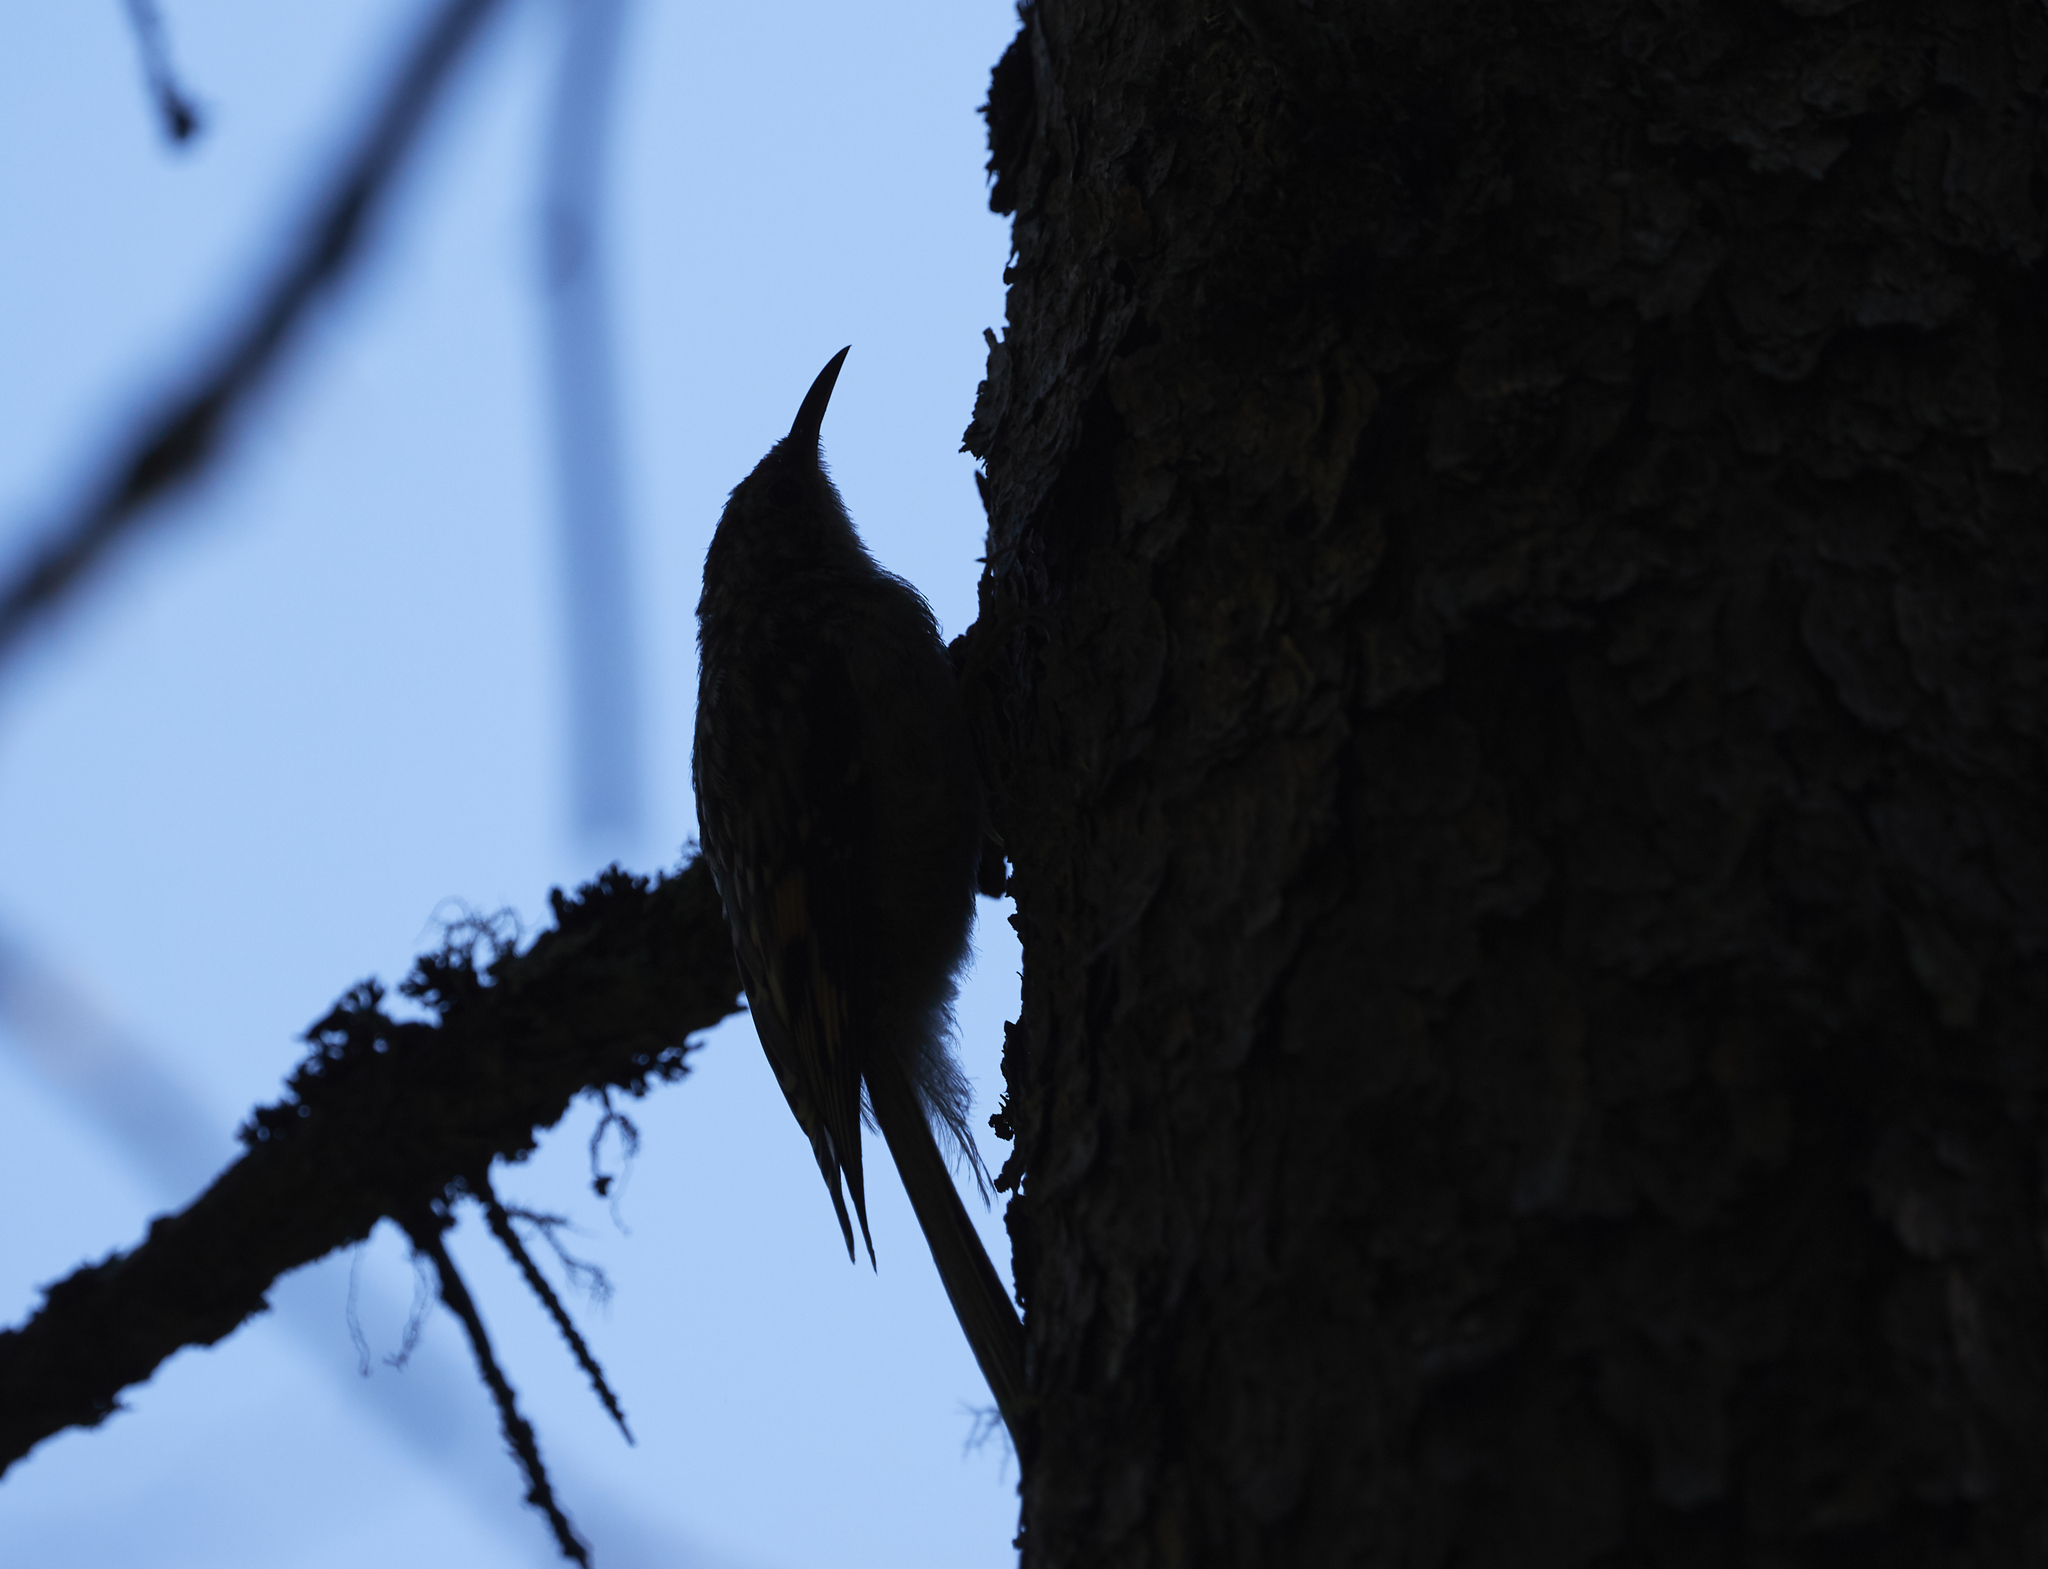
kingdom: Animalia
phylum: Chordata
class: Aves
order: Passeriformes
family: Certhiidae
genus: Certhia
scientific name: Certhia americana
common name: Brown creeper
